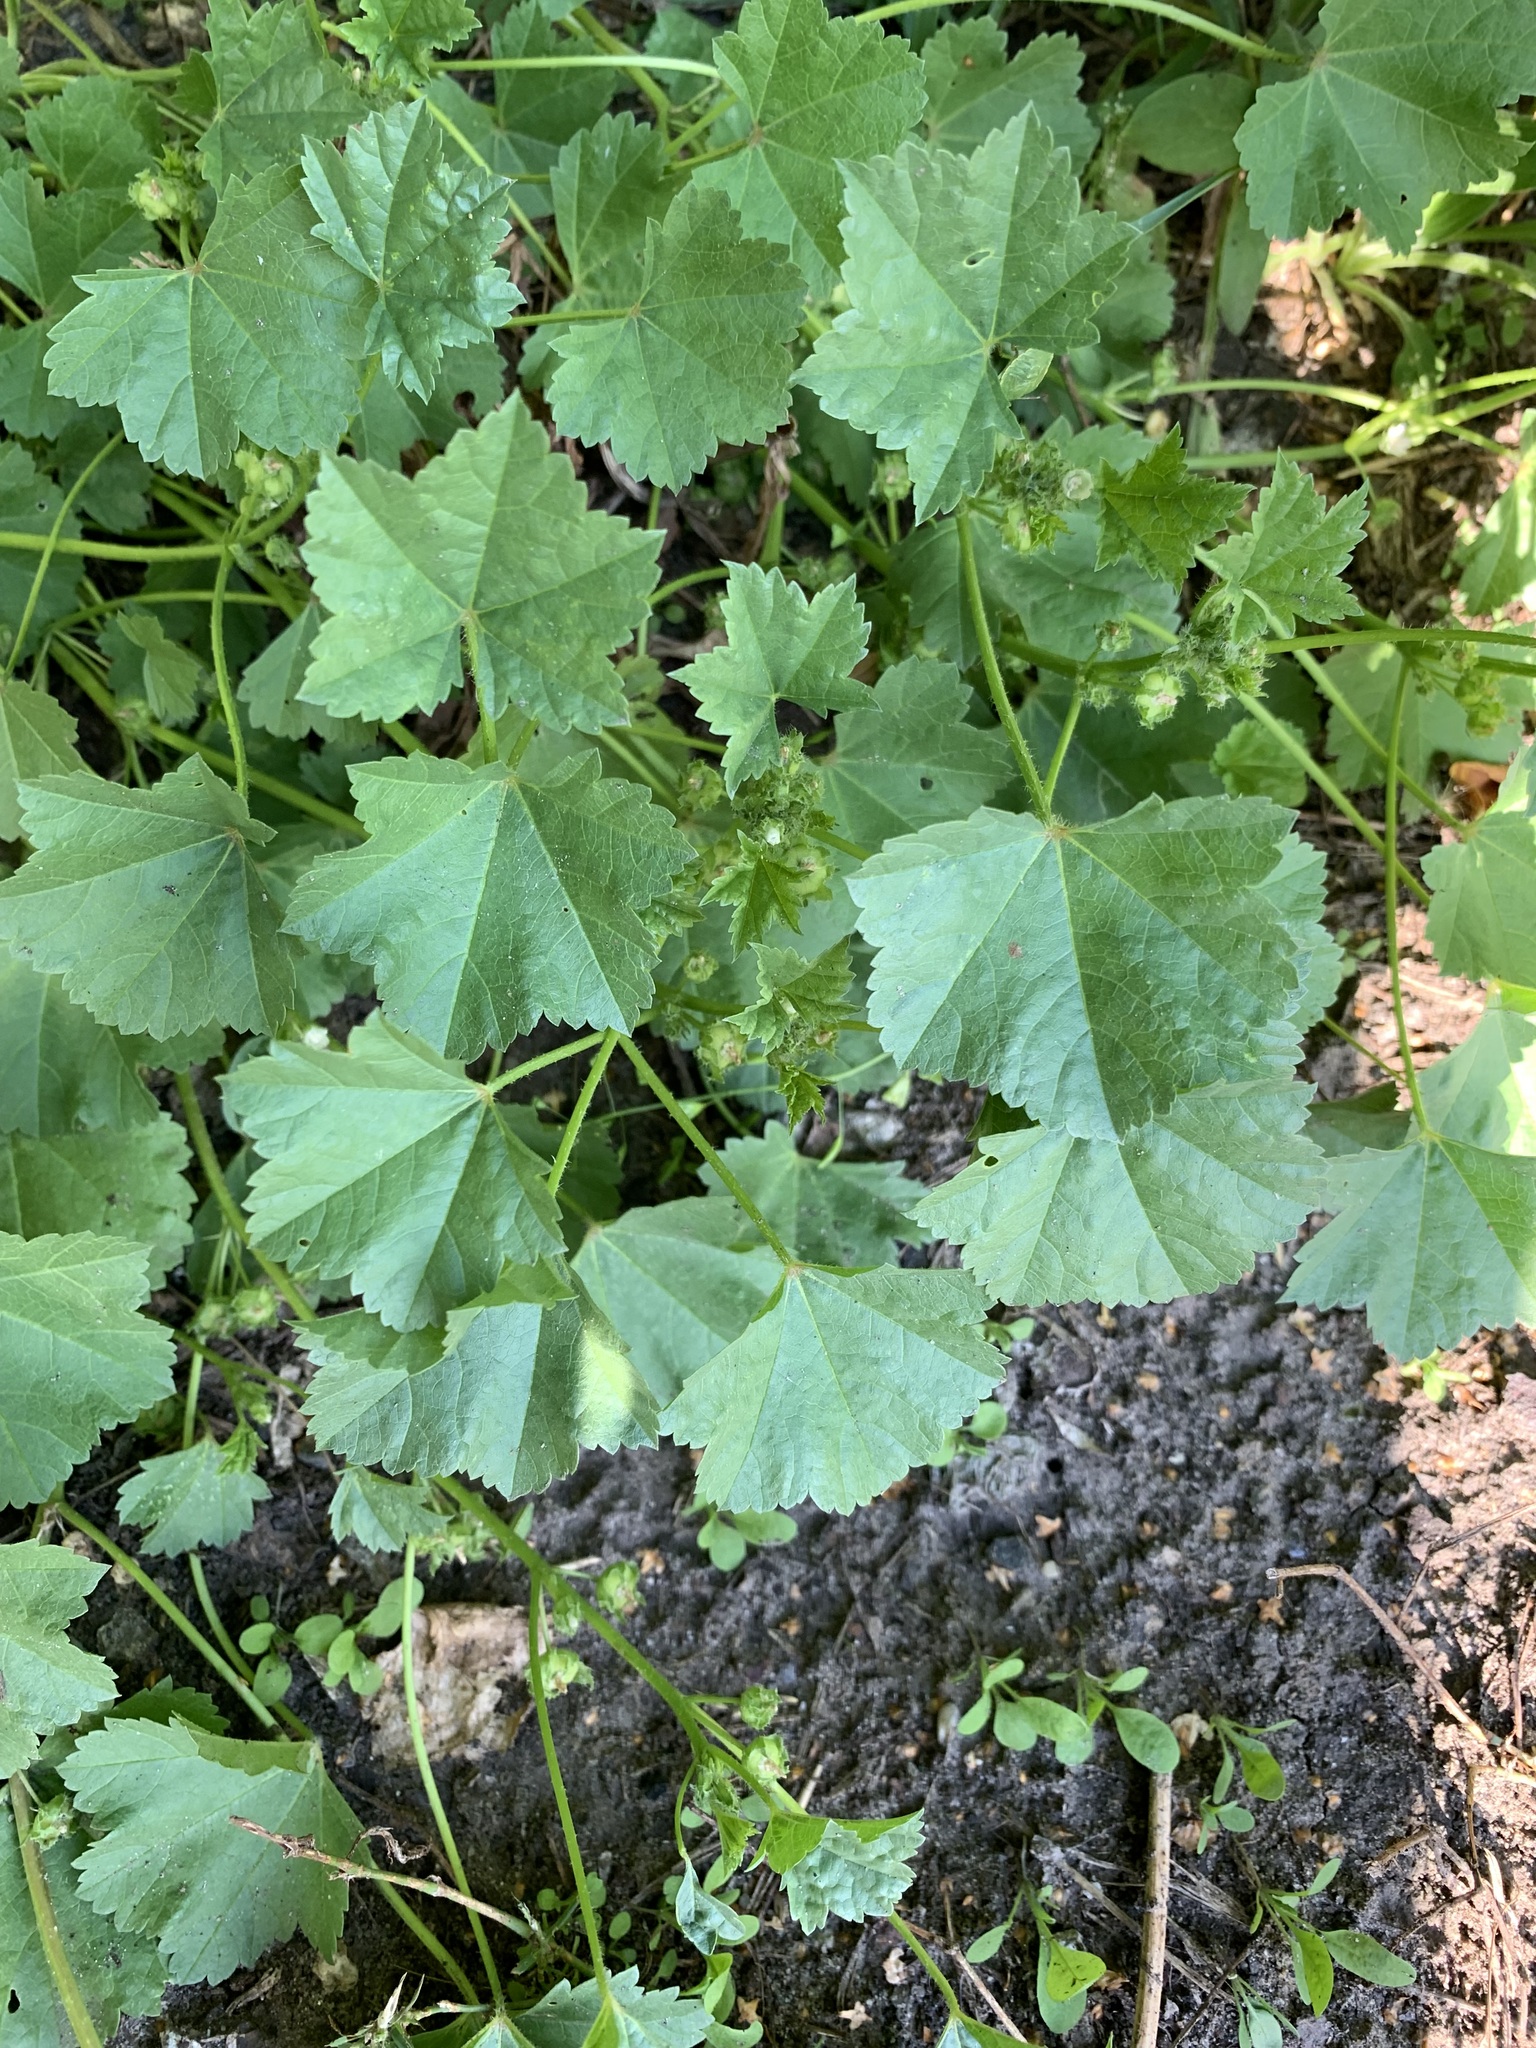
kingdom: Plantae
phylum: Tracheophyta
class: Magnoliopsida
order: Malvales
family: Malvaceae
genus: Malva
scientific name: Malva pusilla
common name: Small mallow
